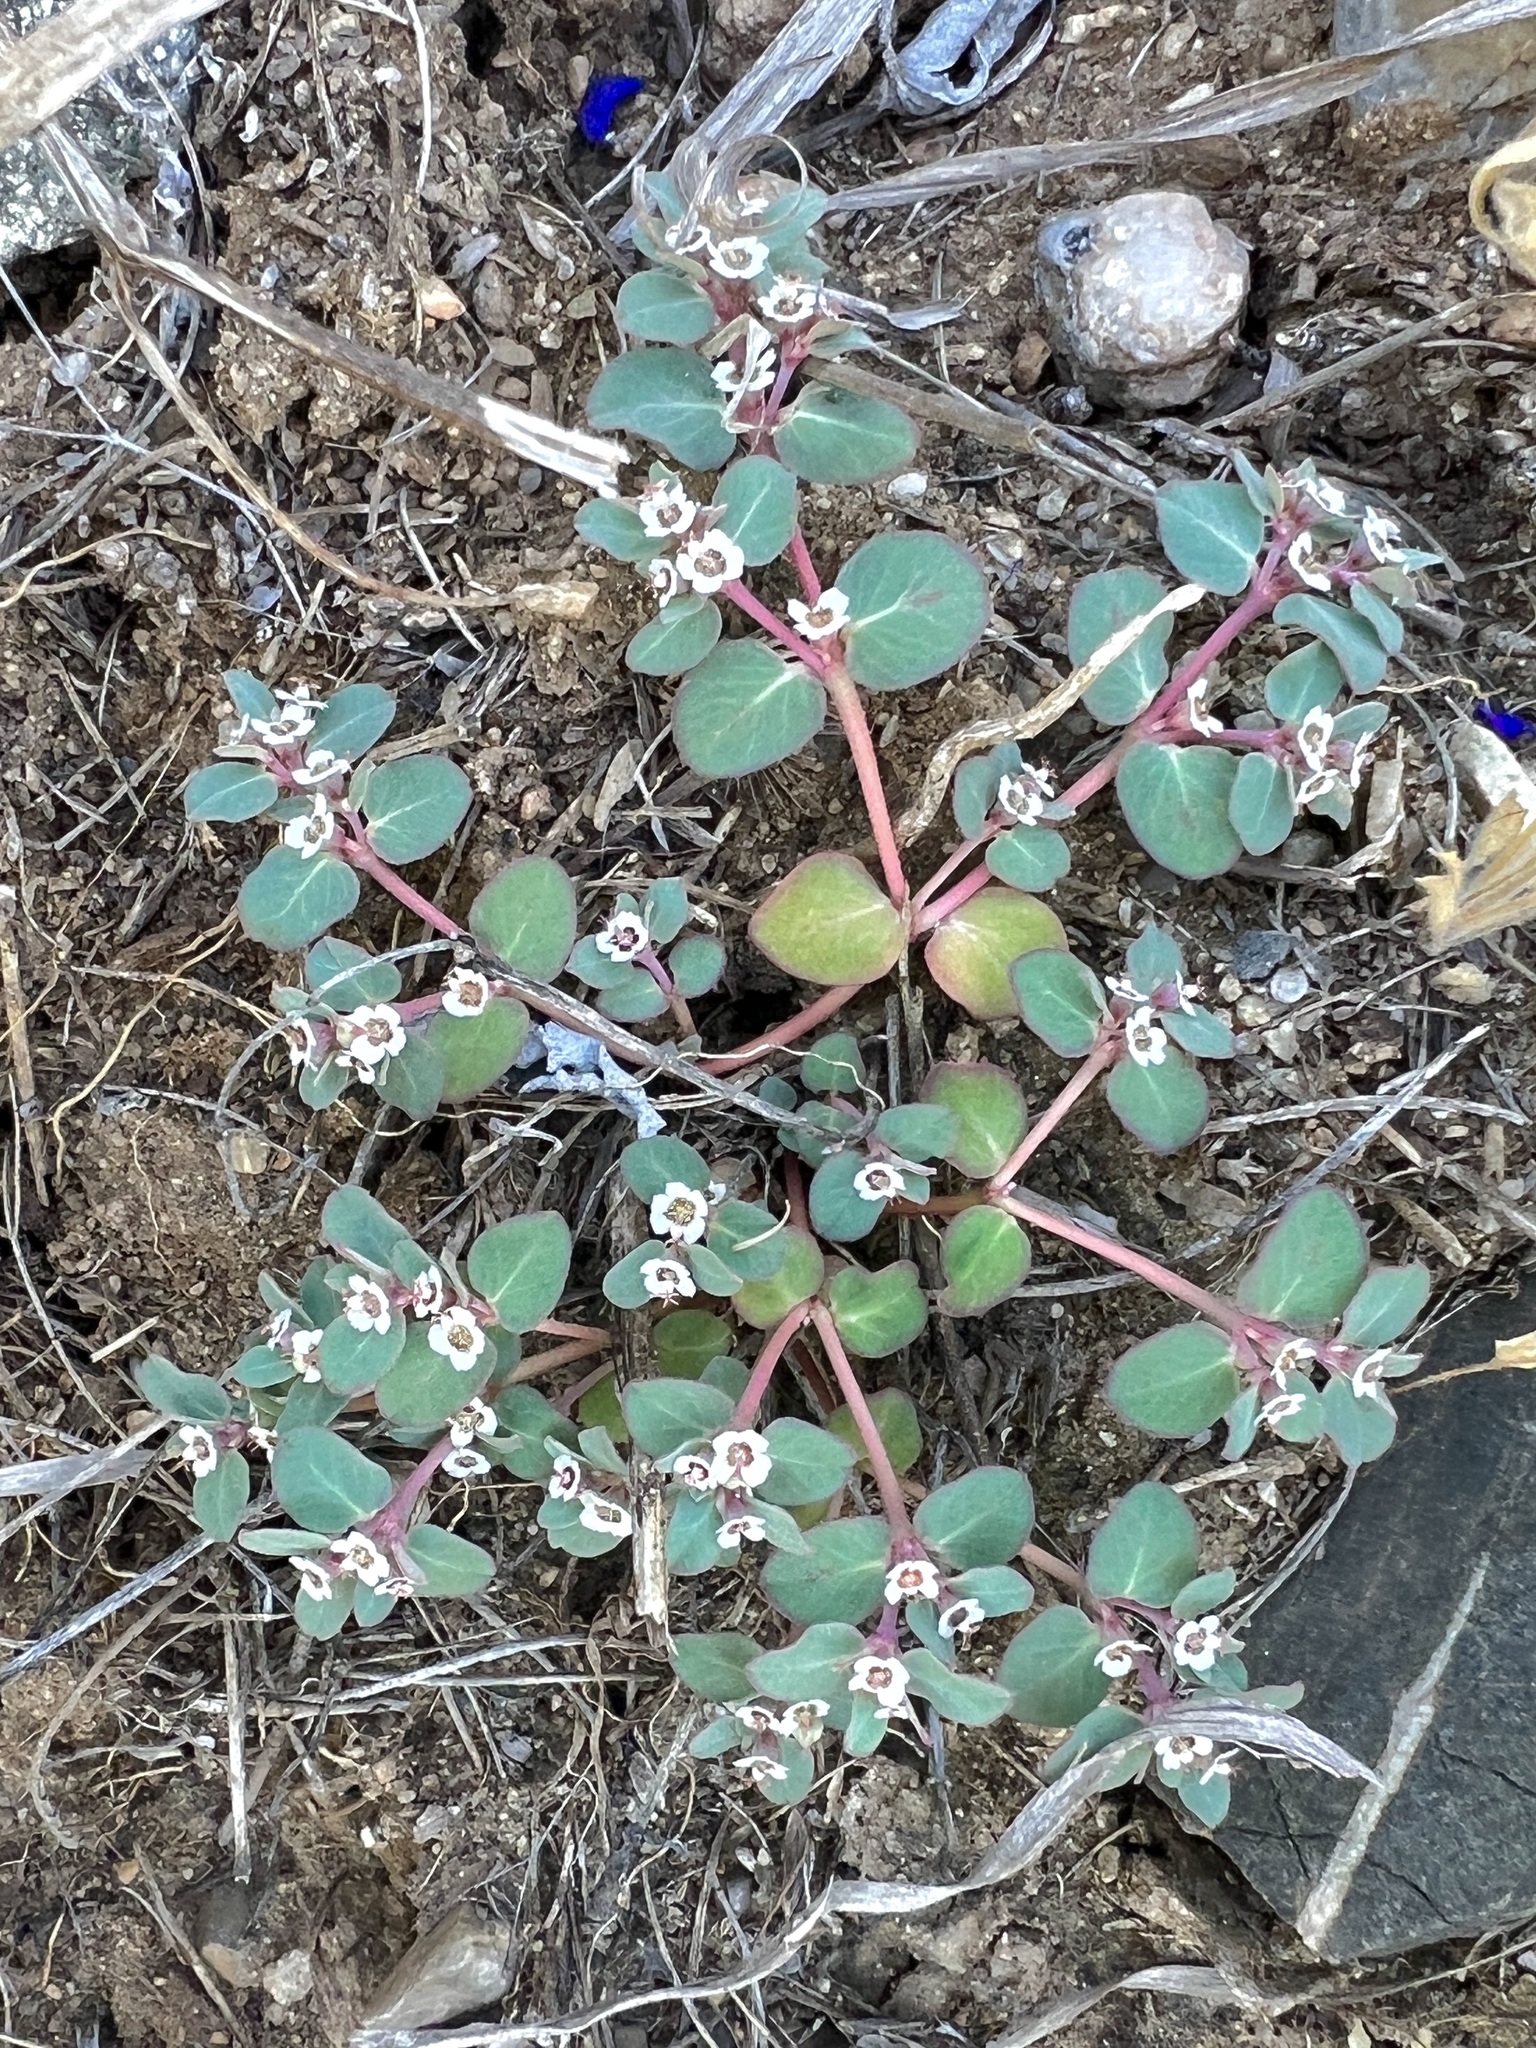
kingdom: Plantae
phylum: Tracheophyta
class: Magnoliopsida
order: Malpighiales
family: Euphorbiaceae
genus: Euphorbia
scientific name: Euphorbia pediculifera
